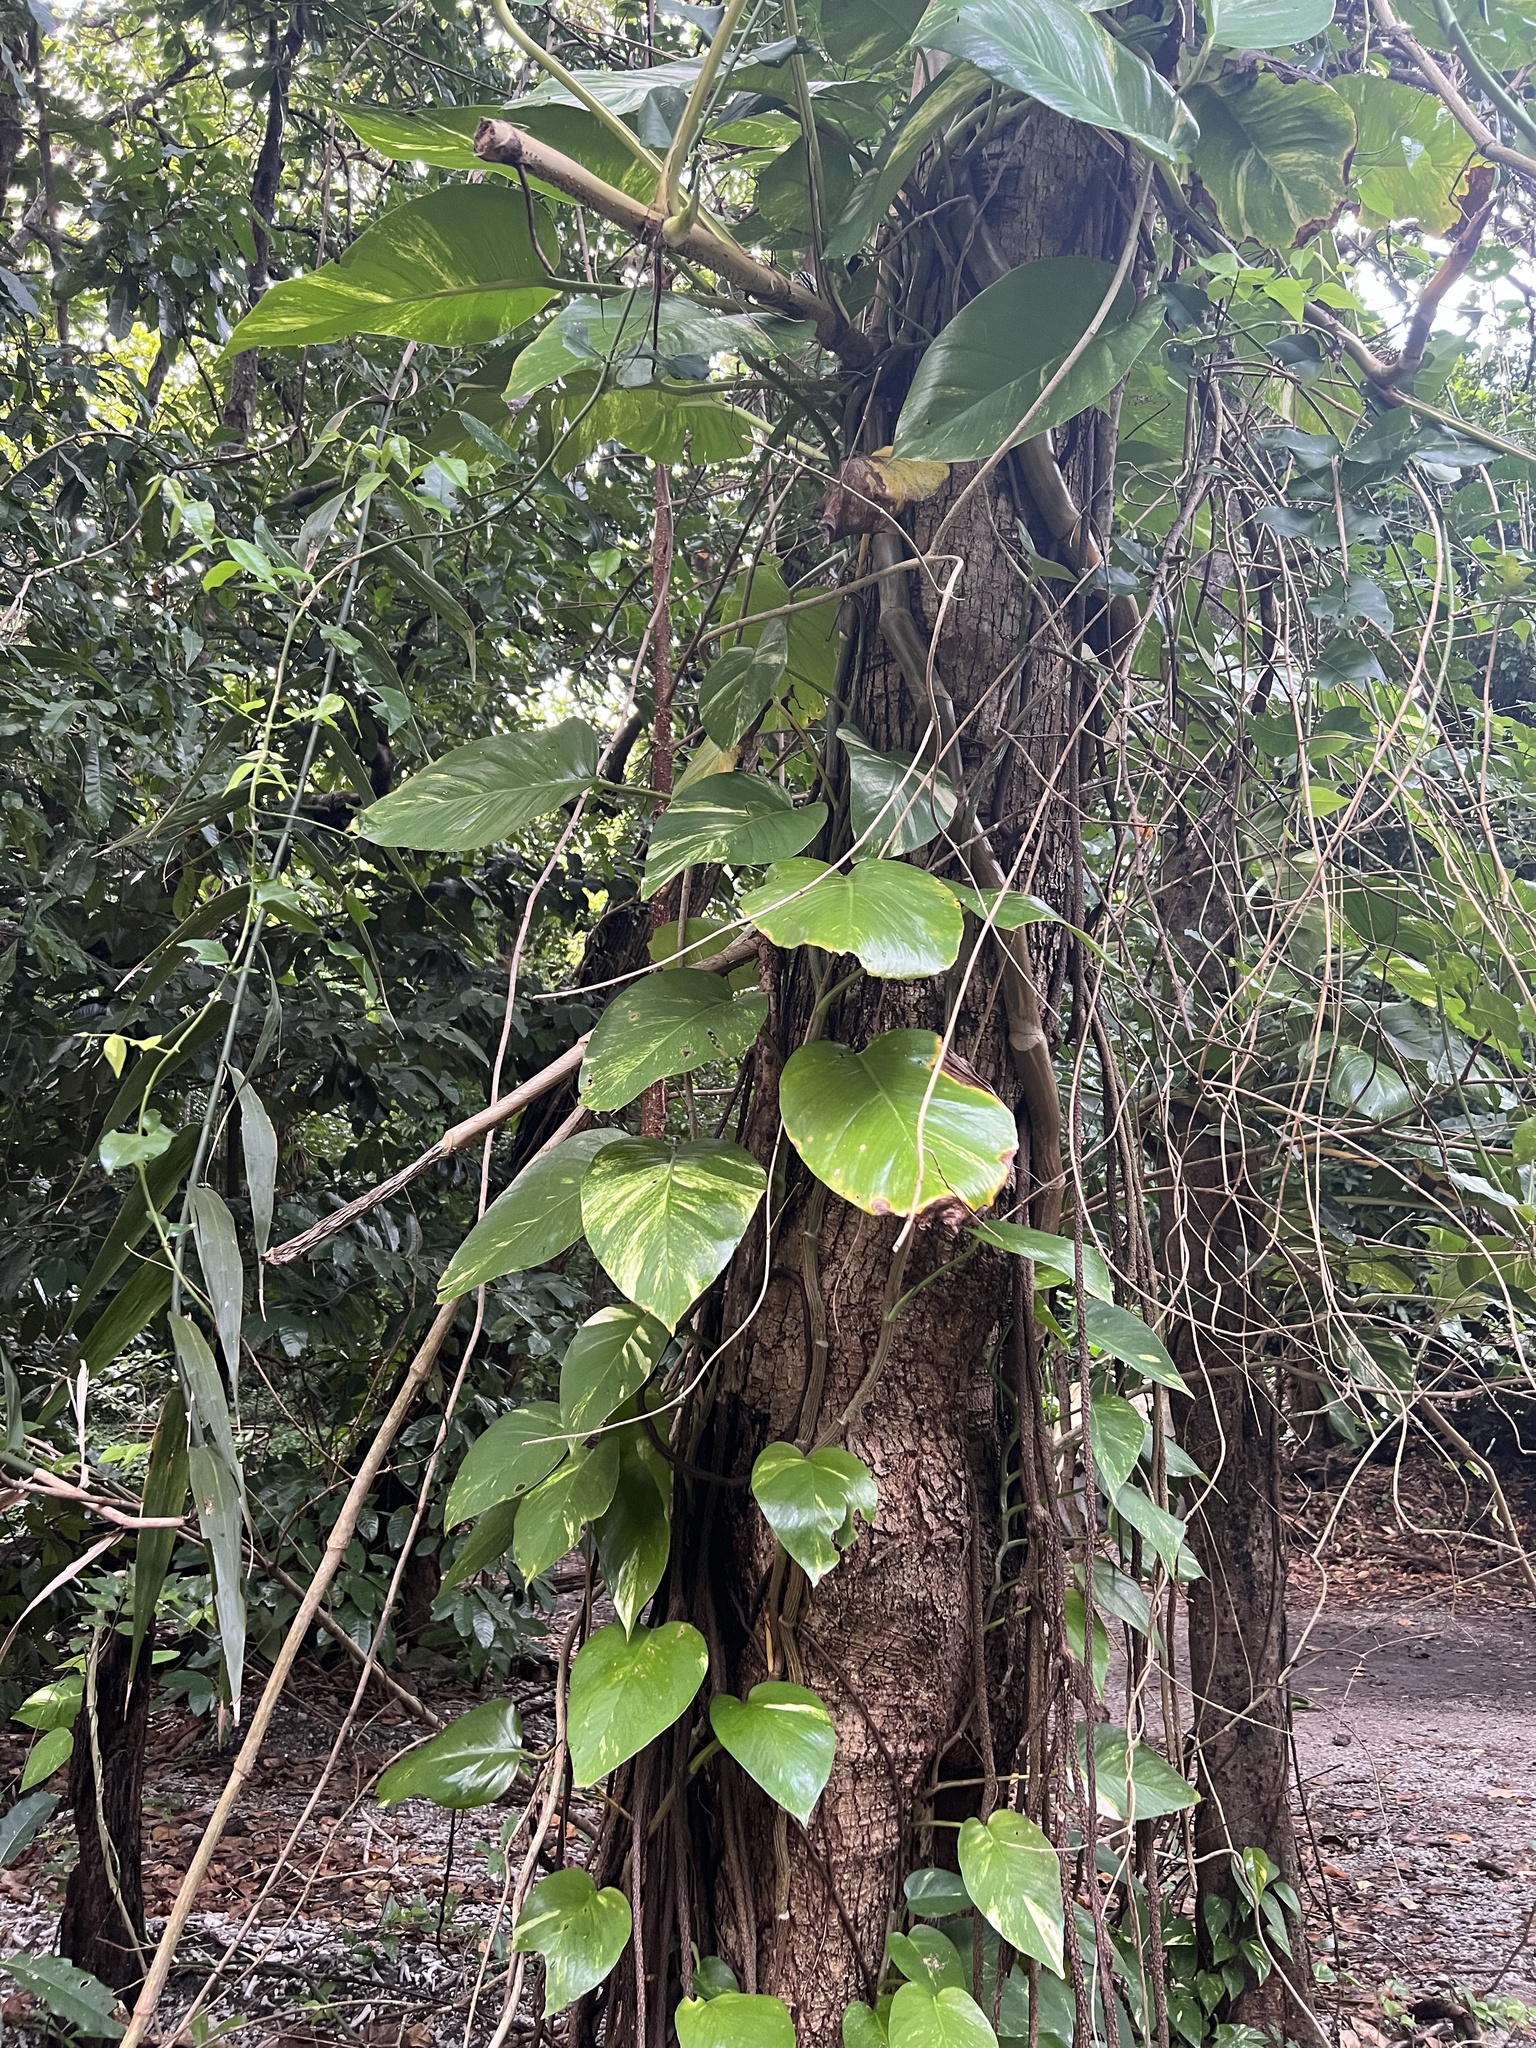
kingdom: Plantae
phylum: Tracheophyta
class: Liliopsida
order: Alismatales
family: Araceae
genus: Epipremnum
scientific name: Epipremnum aureum
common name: Golden hunter's-robe
